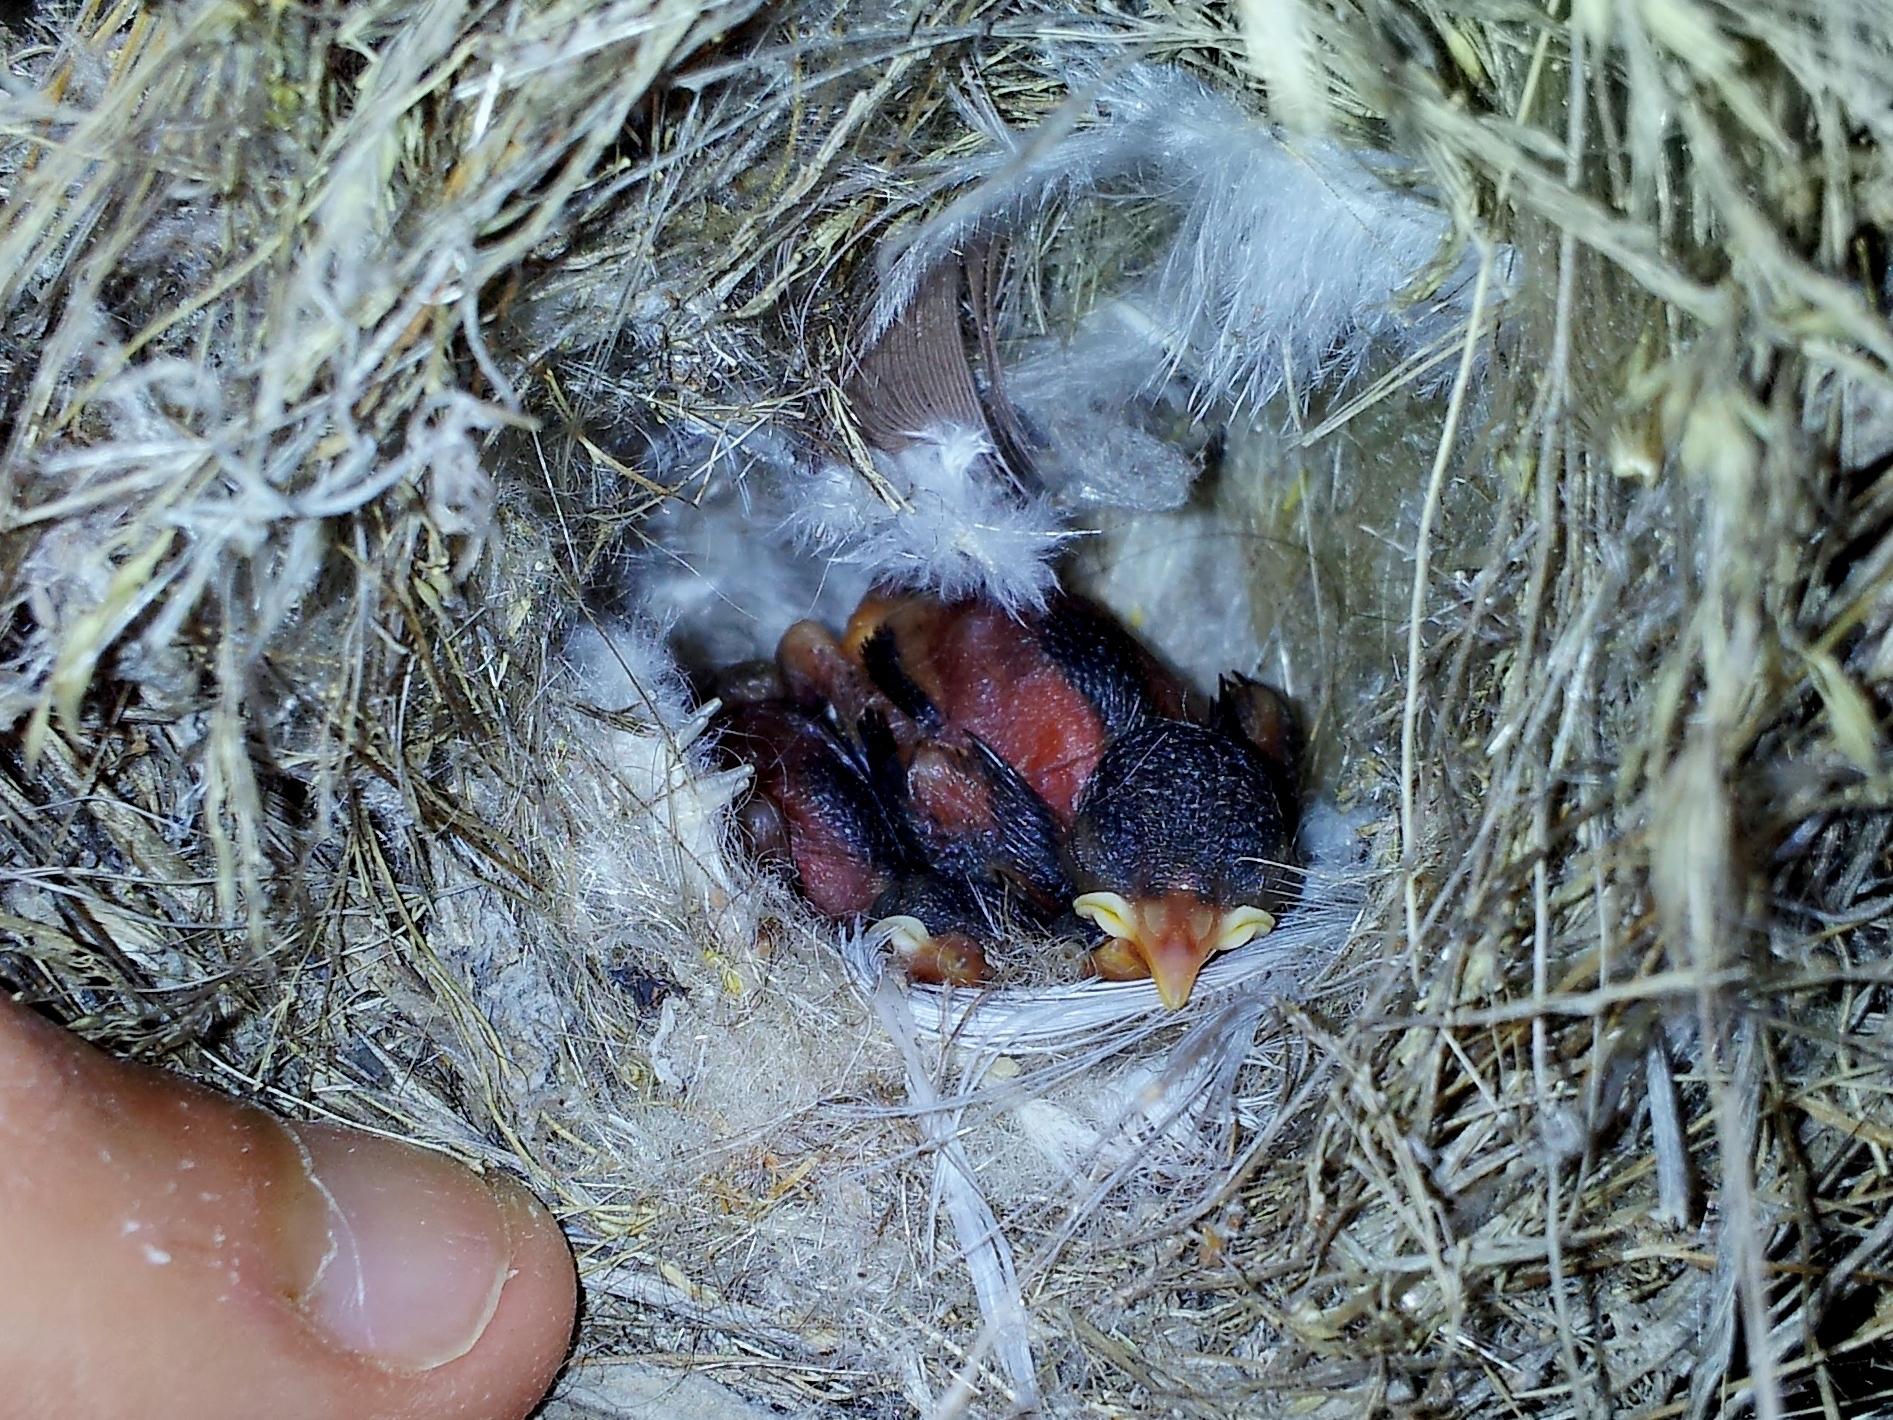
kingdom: Animalia
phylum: Chordata
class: Aves
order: Passeriformes
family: Nectariniidae
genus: Cinnyris
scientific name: Cinnyris osea
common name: Palestine sunbird
